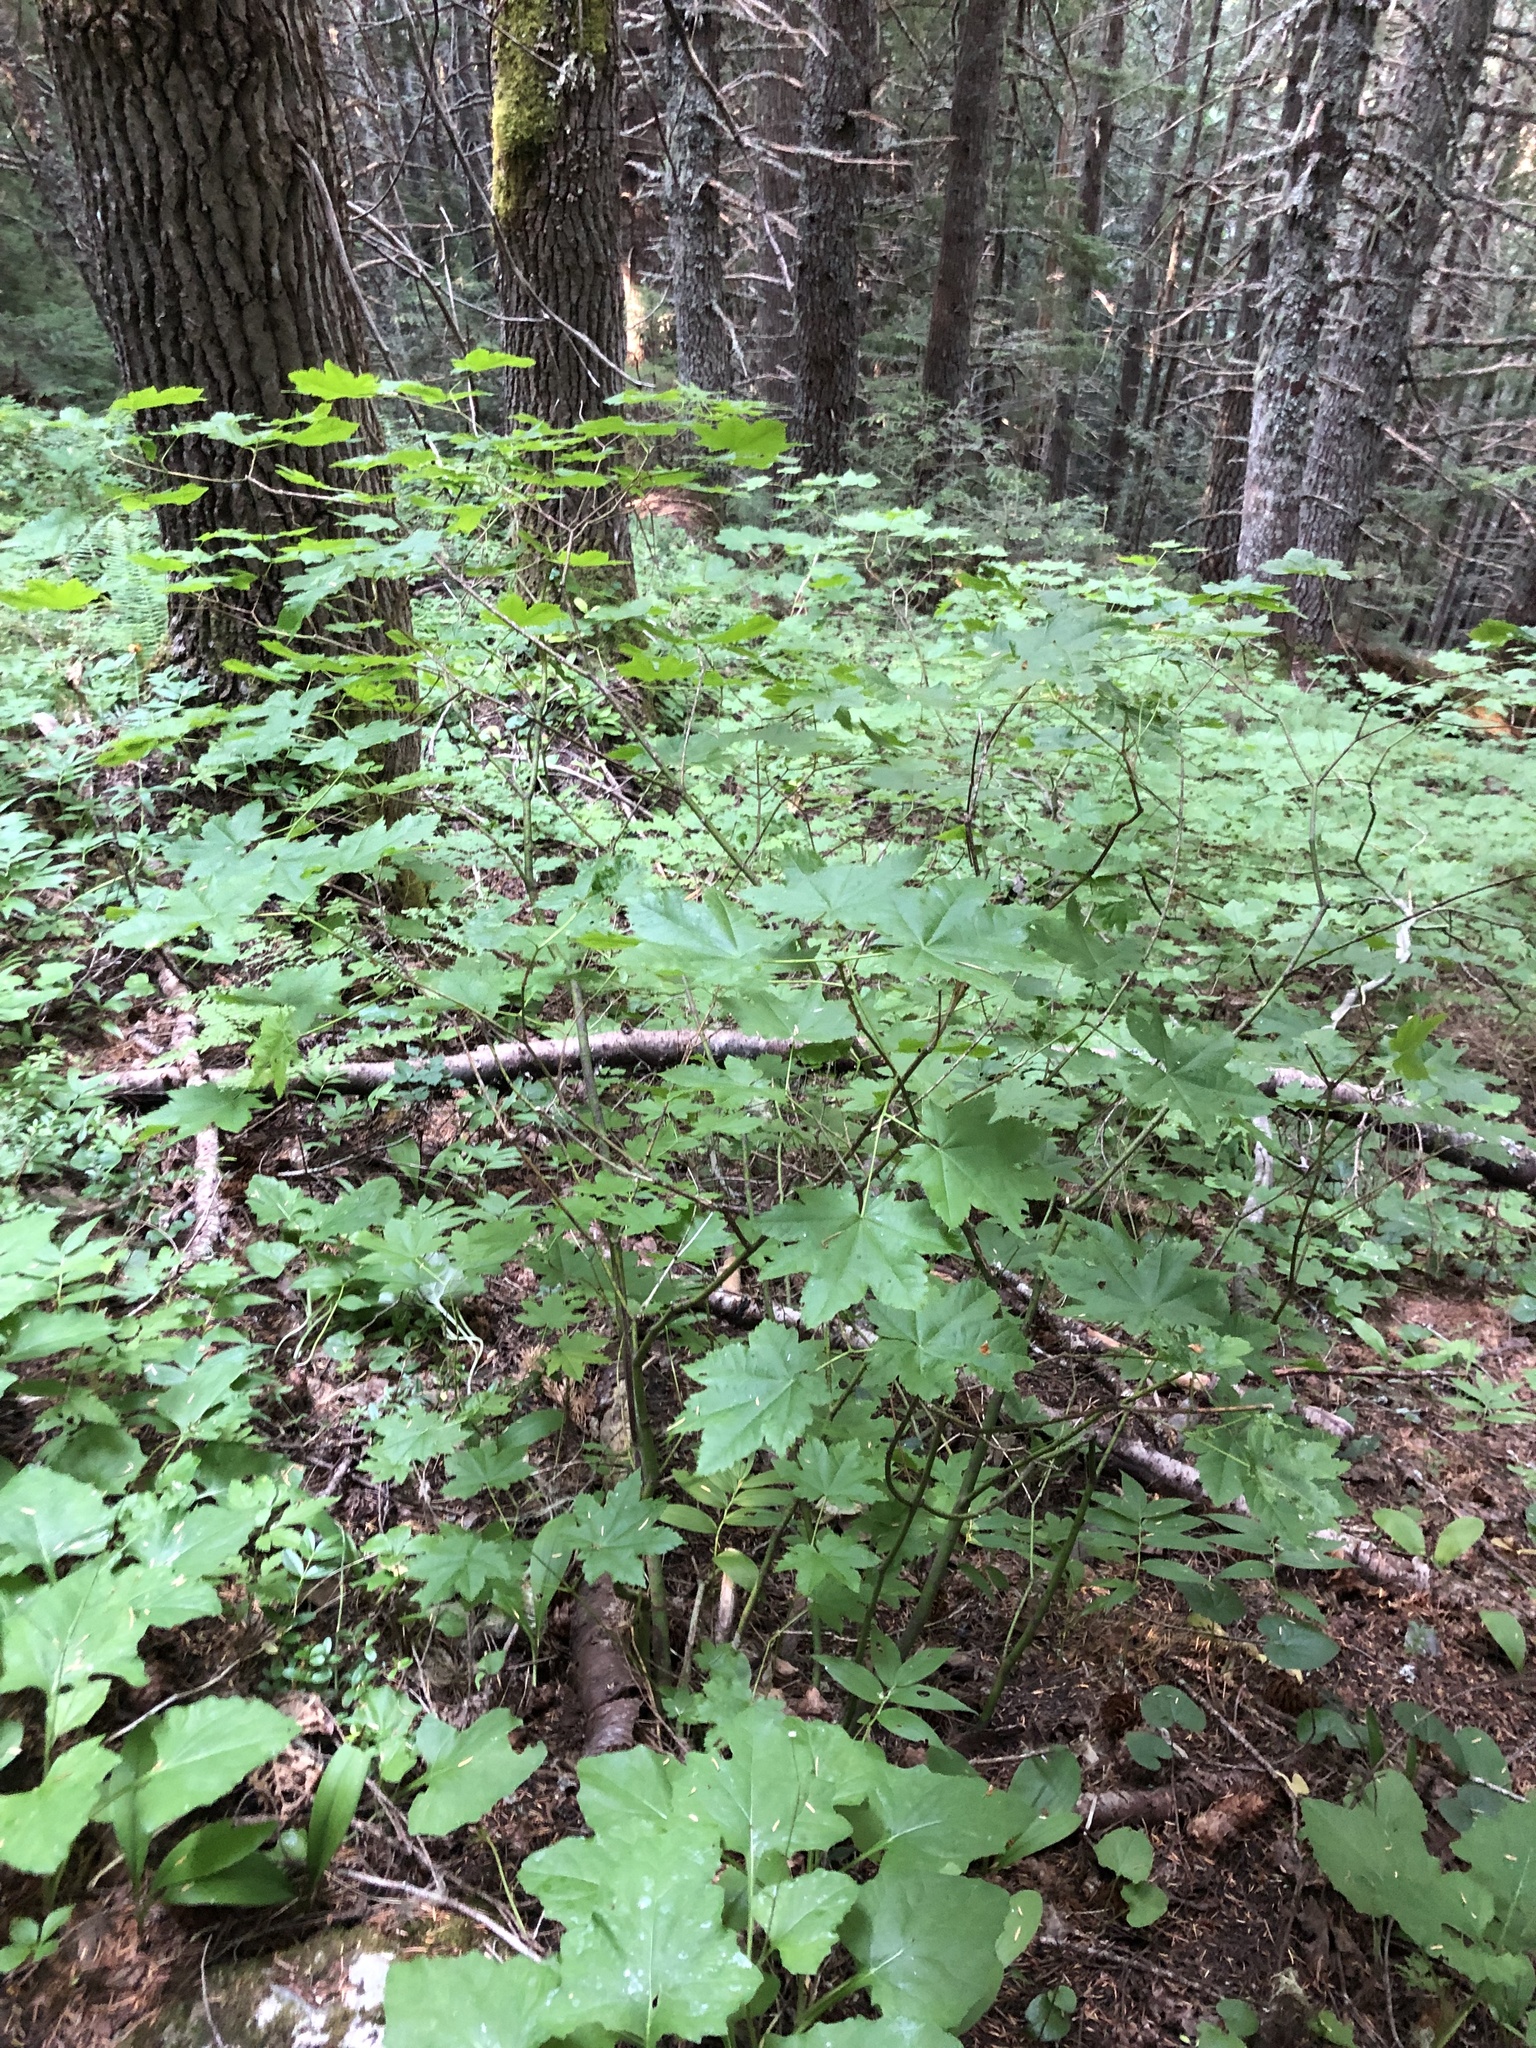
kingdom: Plantae
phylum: Tracheophyta
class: Magnoliopsida
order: Sapindales
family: Sapindaceae
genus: Acer
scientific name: Acer circinatum
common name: Vine maple
